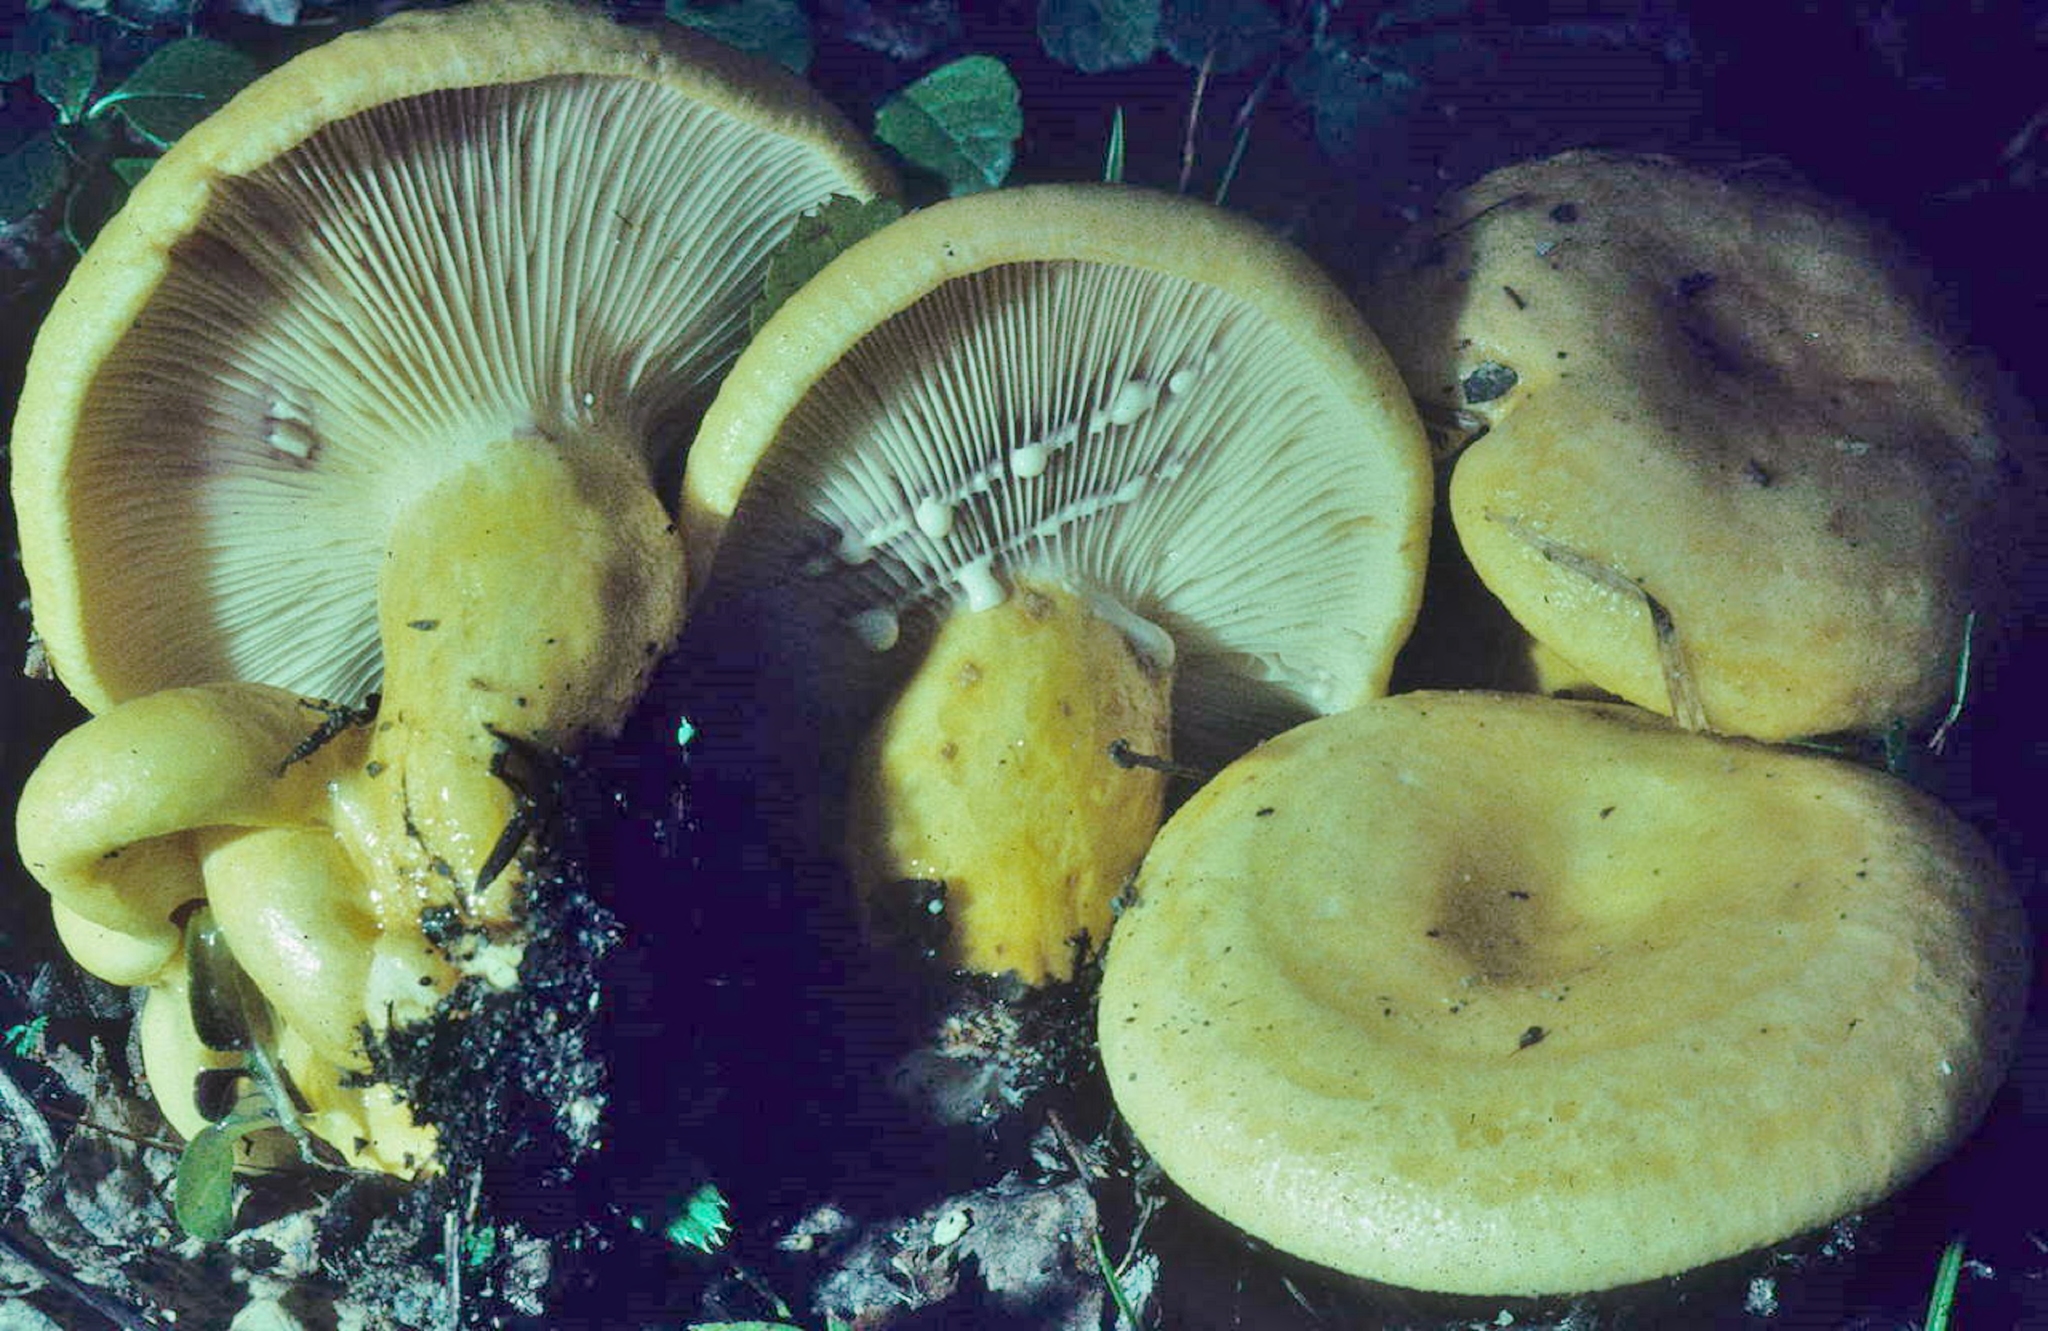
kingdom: Fungi
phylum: Basidiomycota
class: Agaricomycetes
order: Russulales
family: Russulaceae
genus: Lactarius
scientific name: Lactarius salicis-reticulatae
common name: Mountain milkcap
